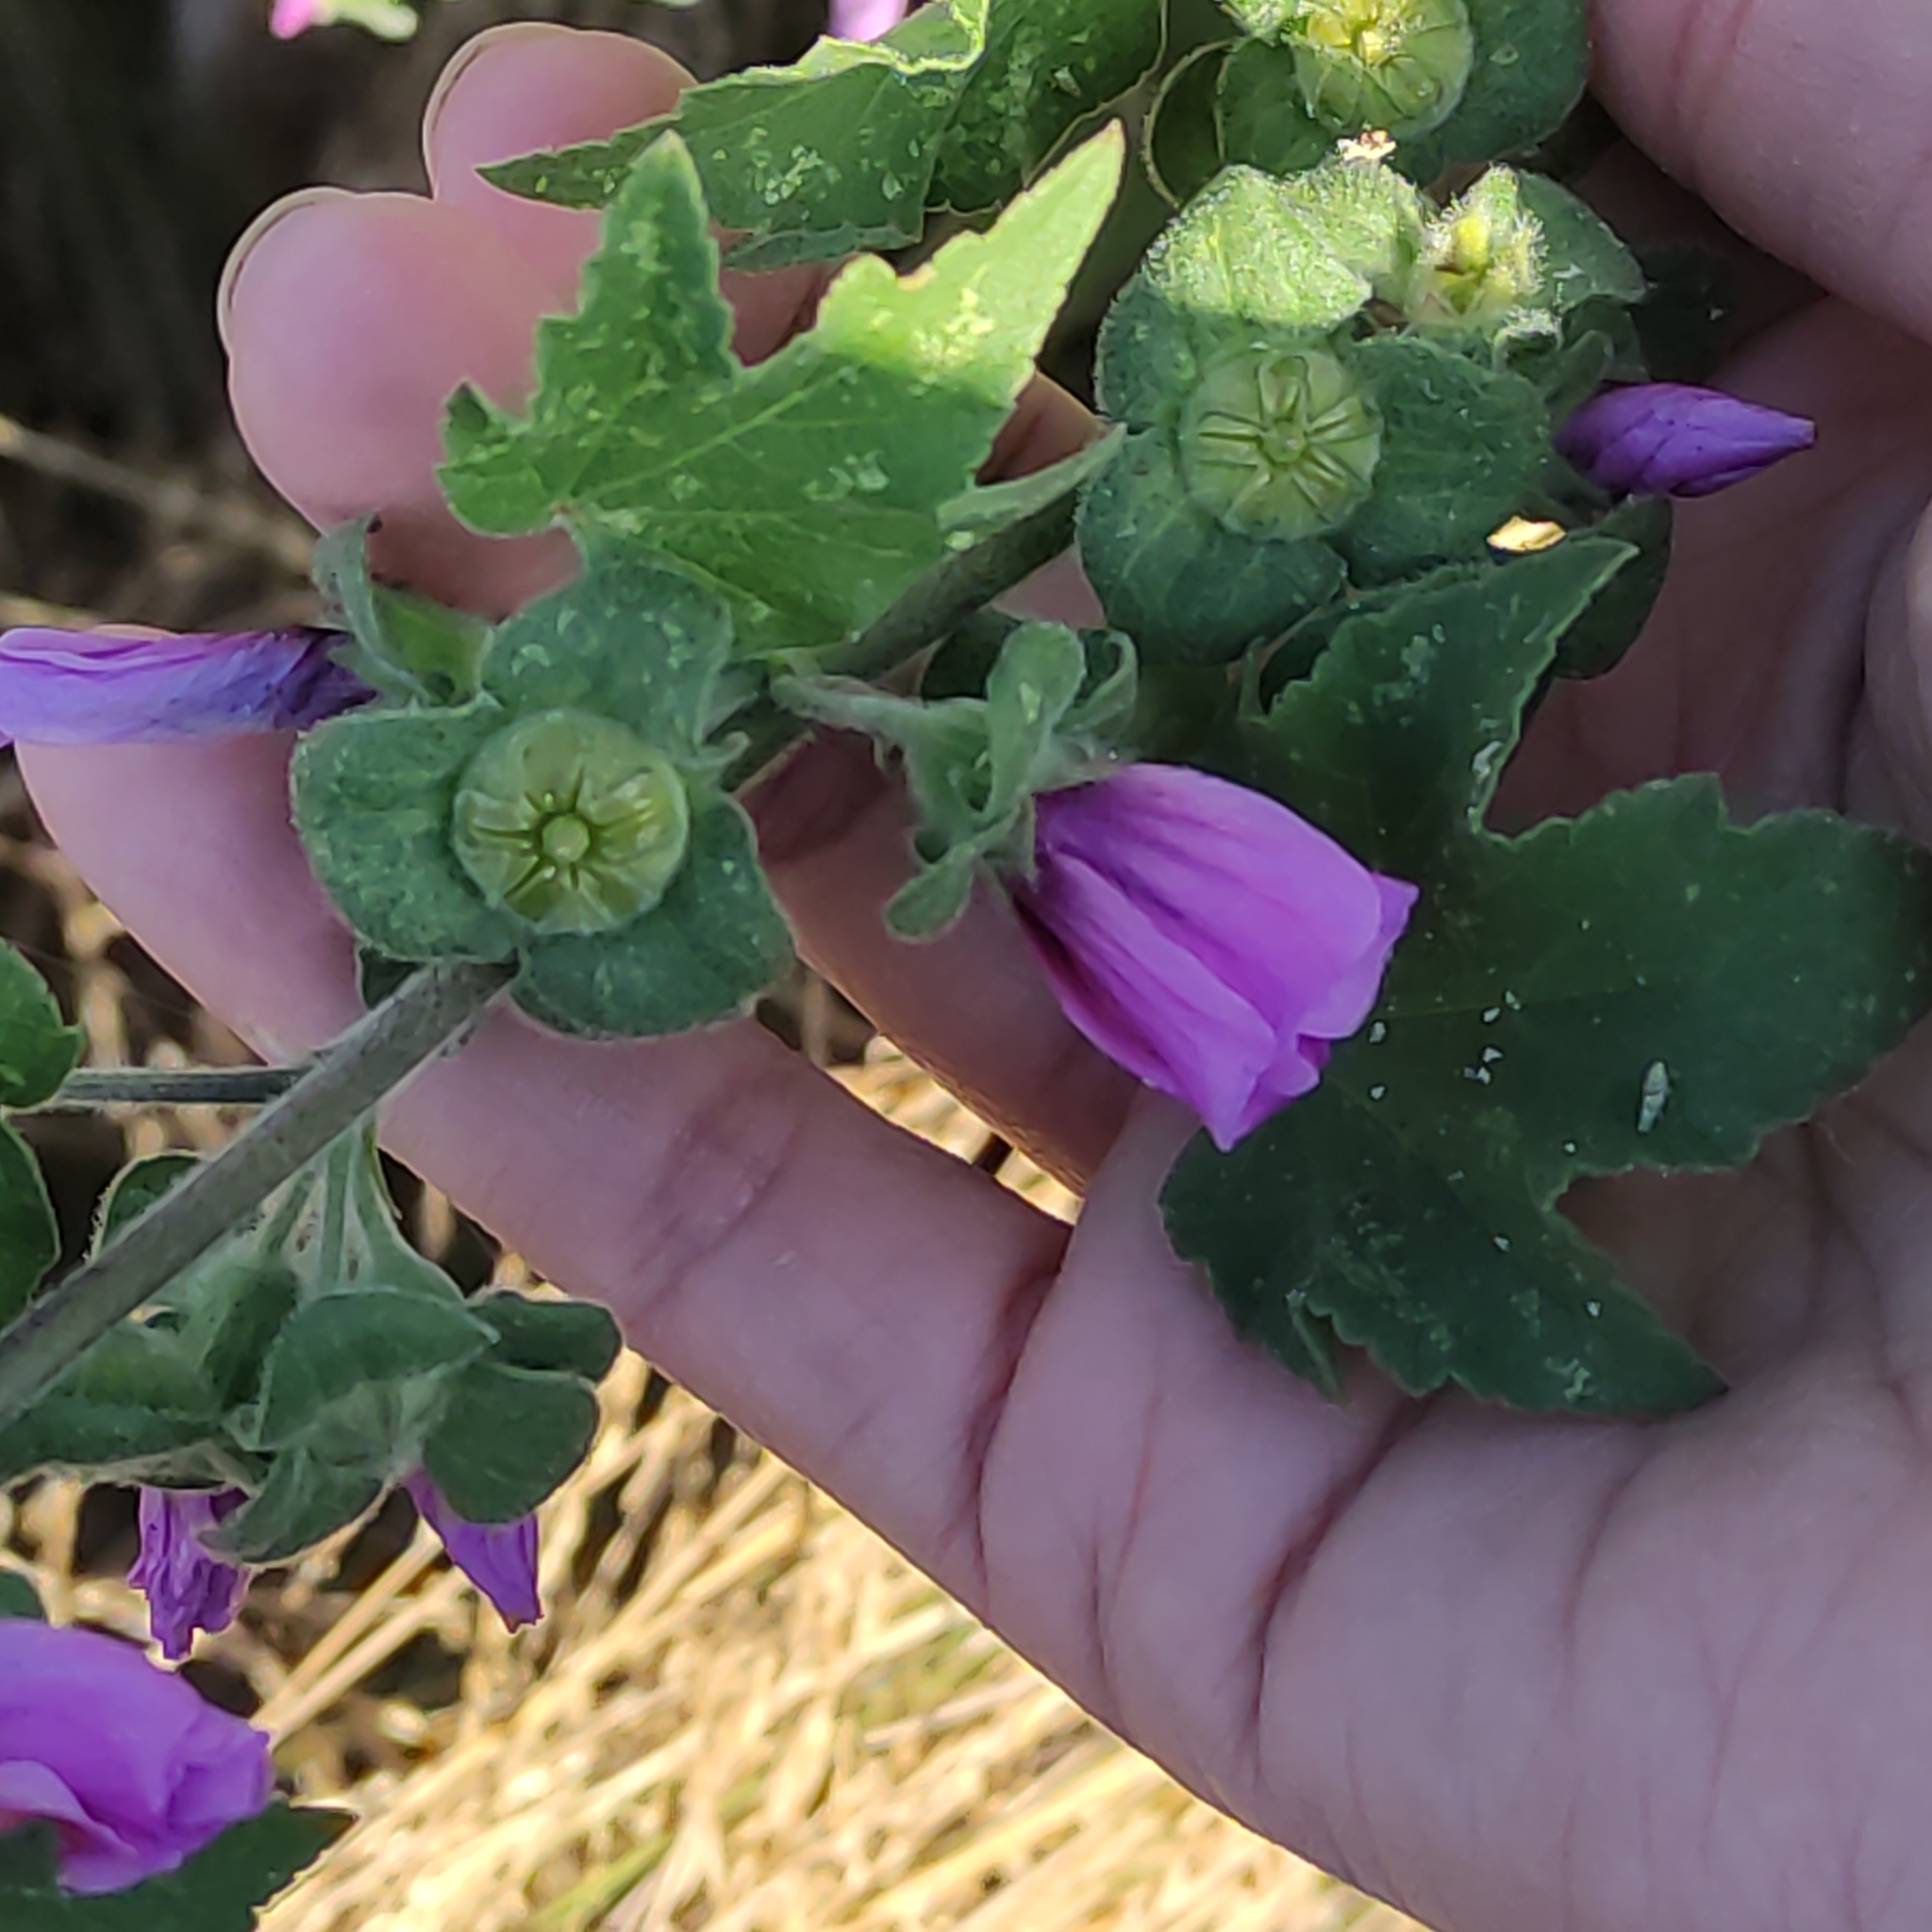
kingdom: Plantae
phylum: Tracheophyta
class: Magnoliopsida
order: Malvales
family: Malvaceae
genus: Malva
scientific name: Malva arborea
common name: Tree mallow
